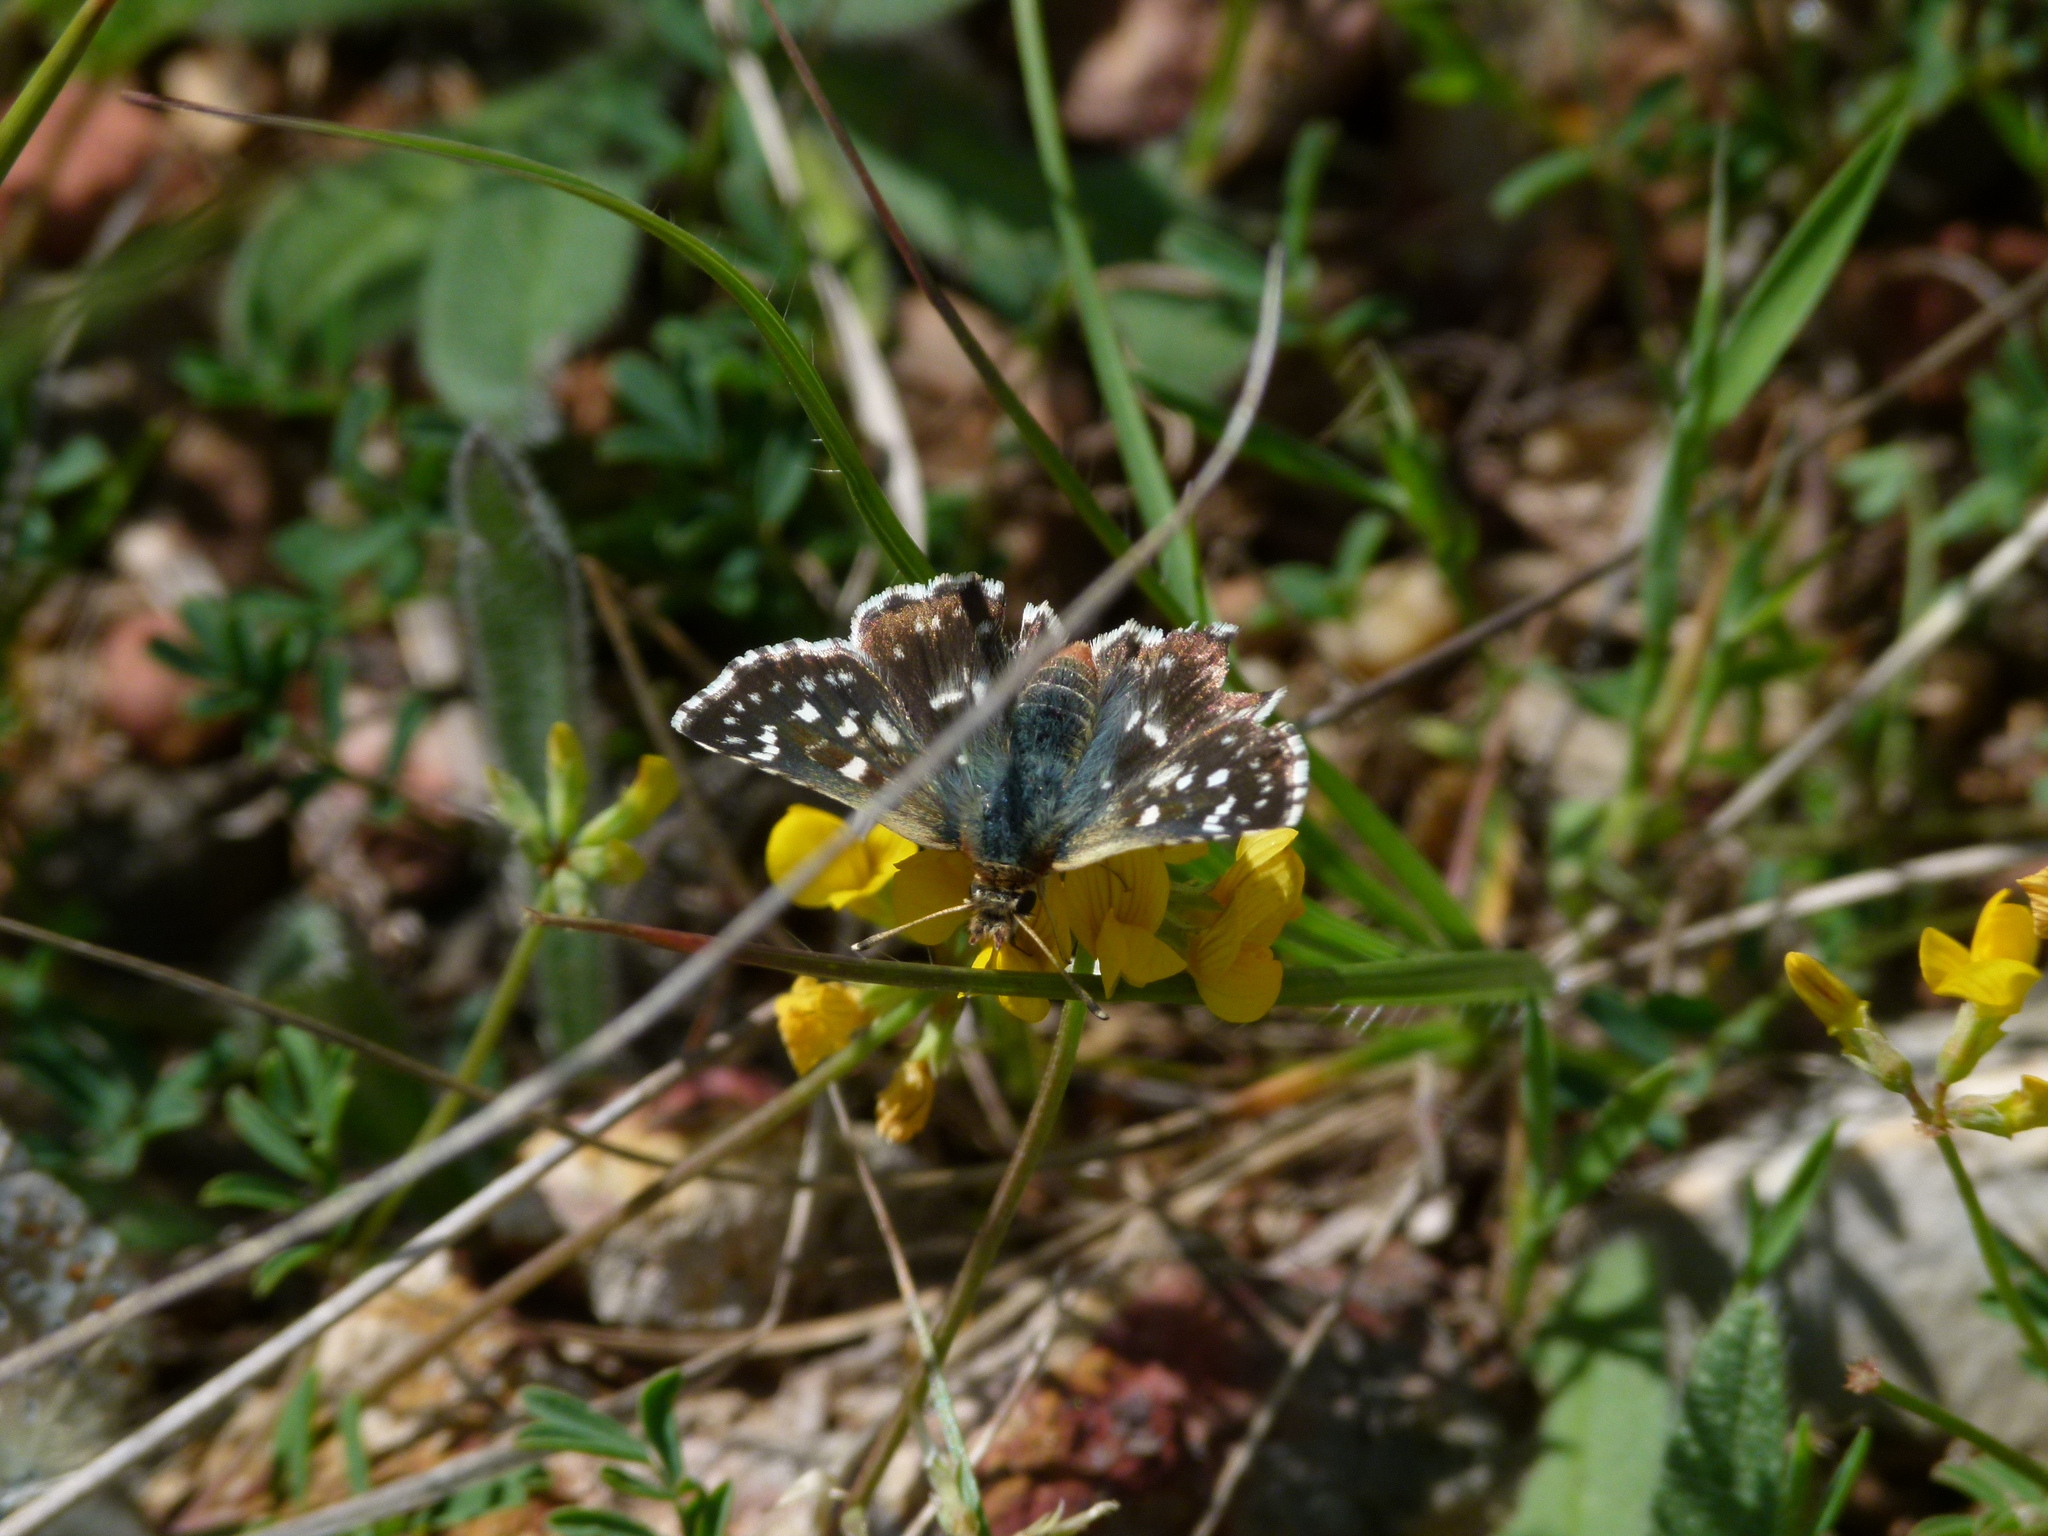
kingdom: Animalia
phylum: Arthropoda
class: Insecta
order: Lepidoptera
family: Hesperiidae
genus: Spialia
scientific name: Spialia sertorius
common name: Red underwing skipper
